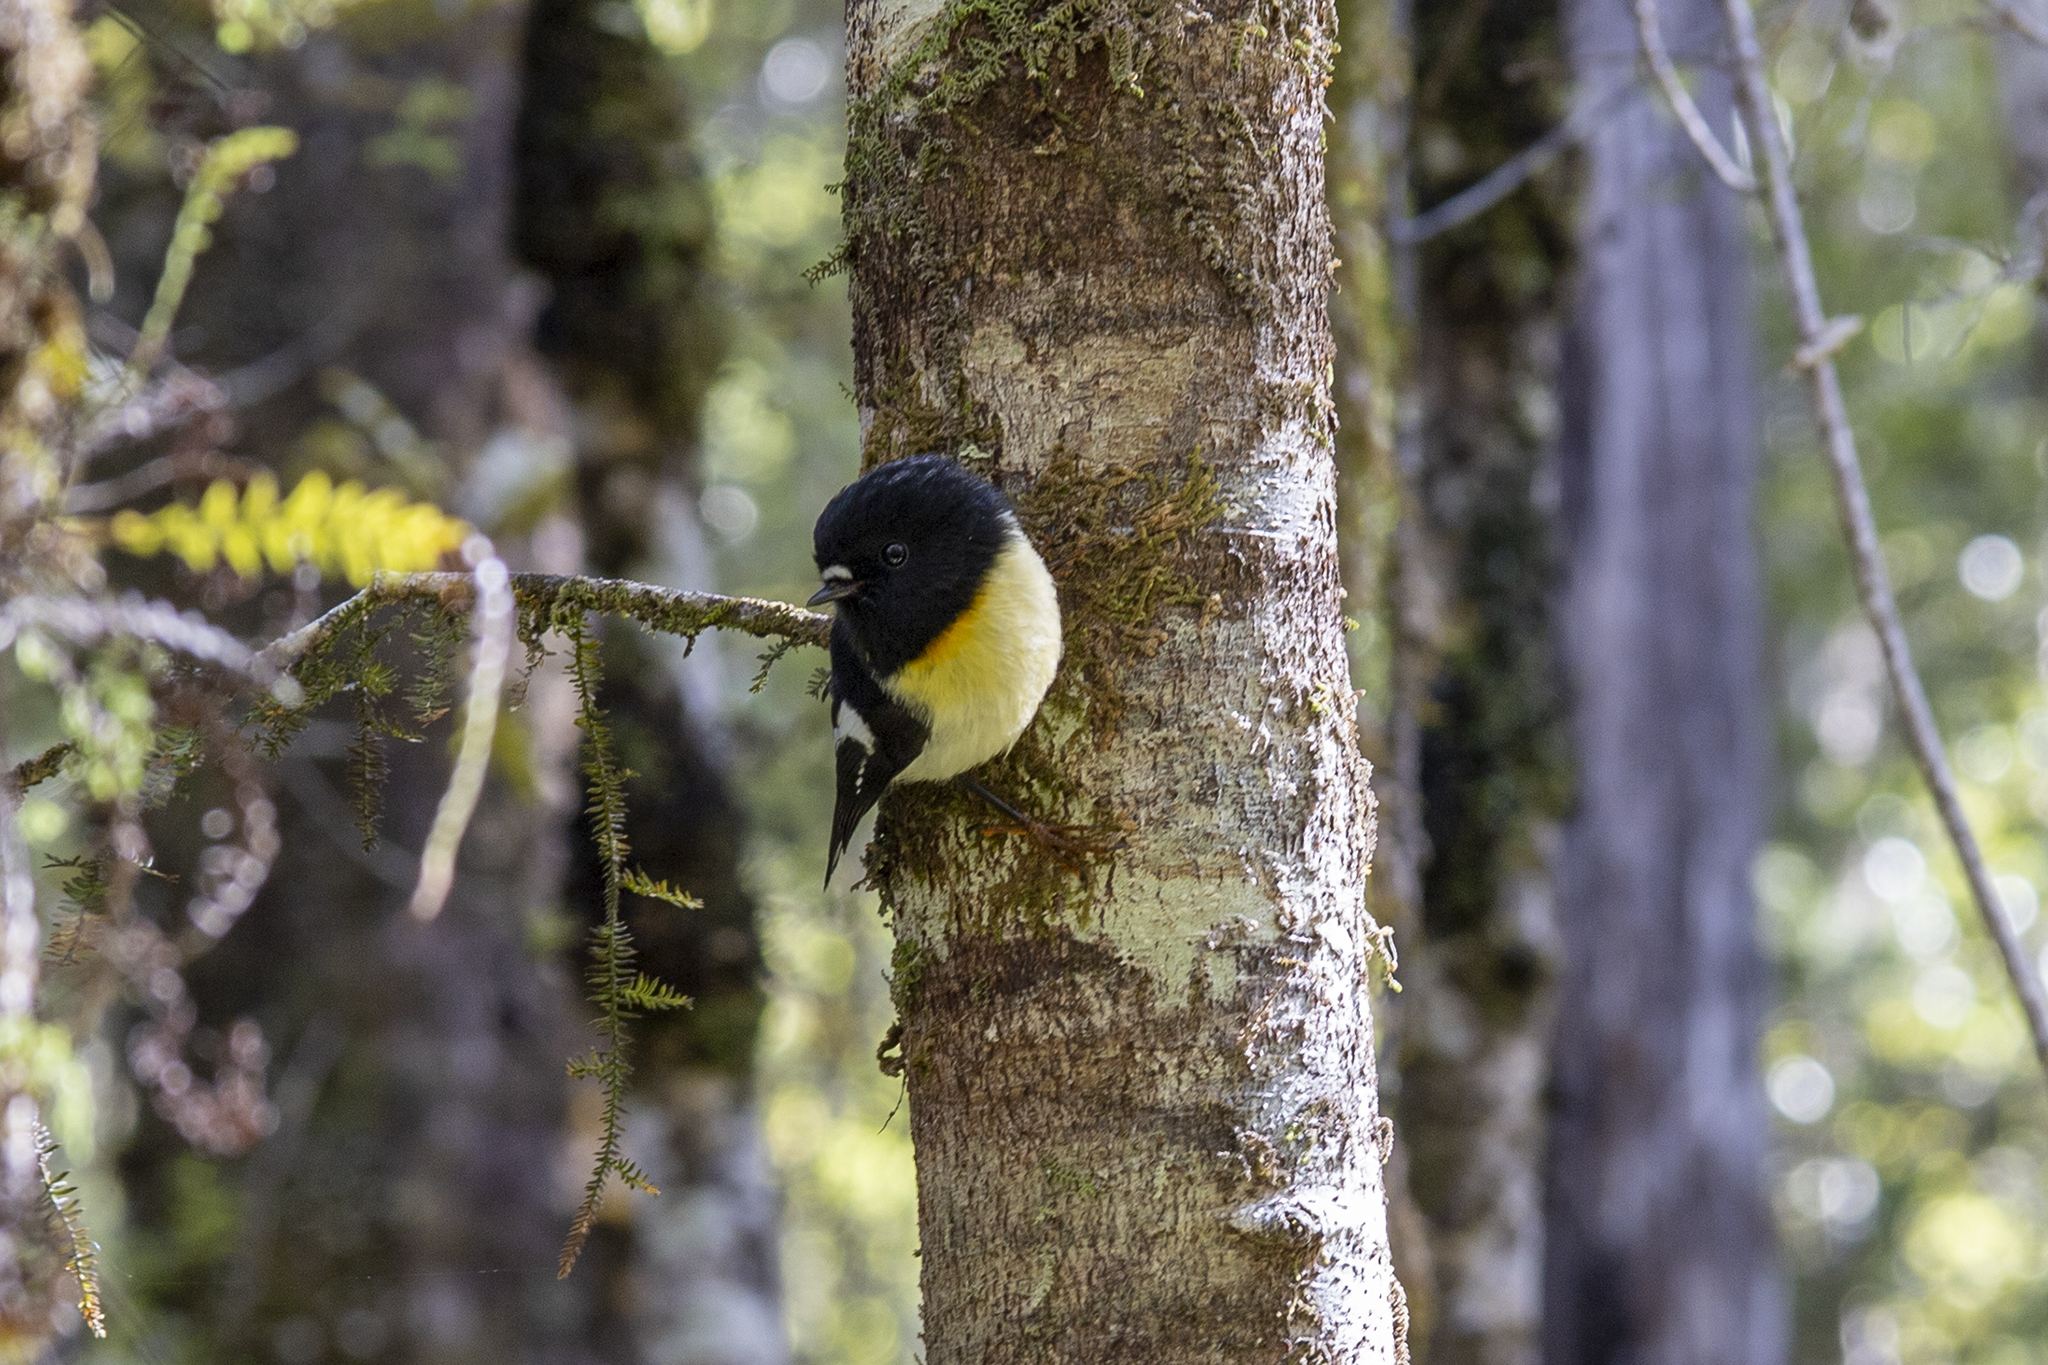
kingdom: Animalia
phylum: Chordata
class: Aves
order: Passeriformes
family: Petroicidae
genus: Petroica
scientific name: Petroica macrocephala
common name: Tomtit
